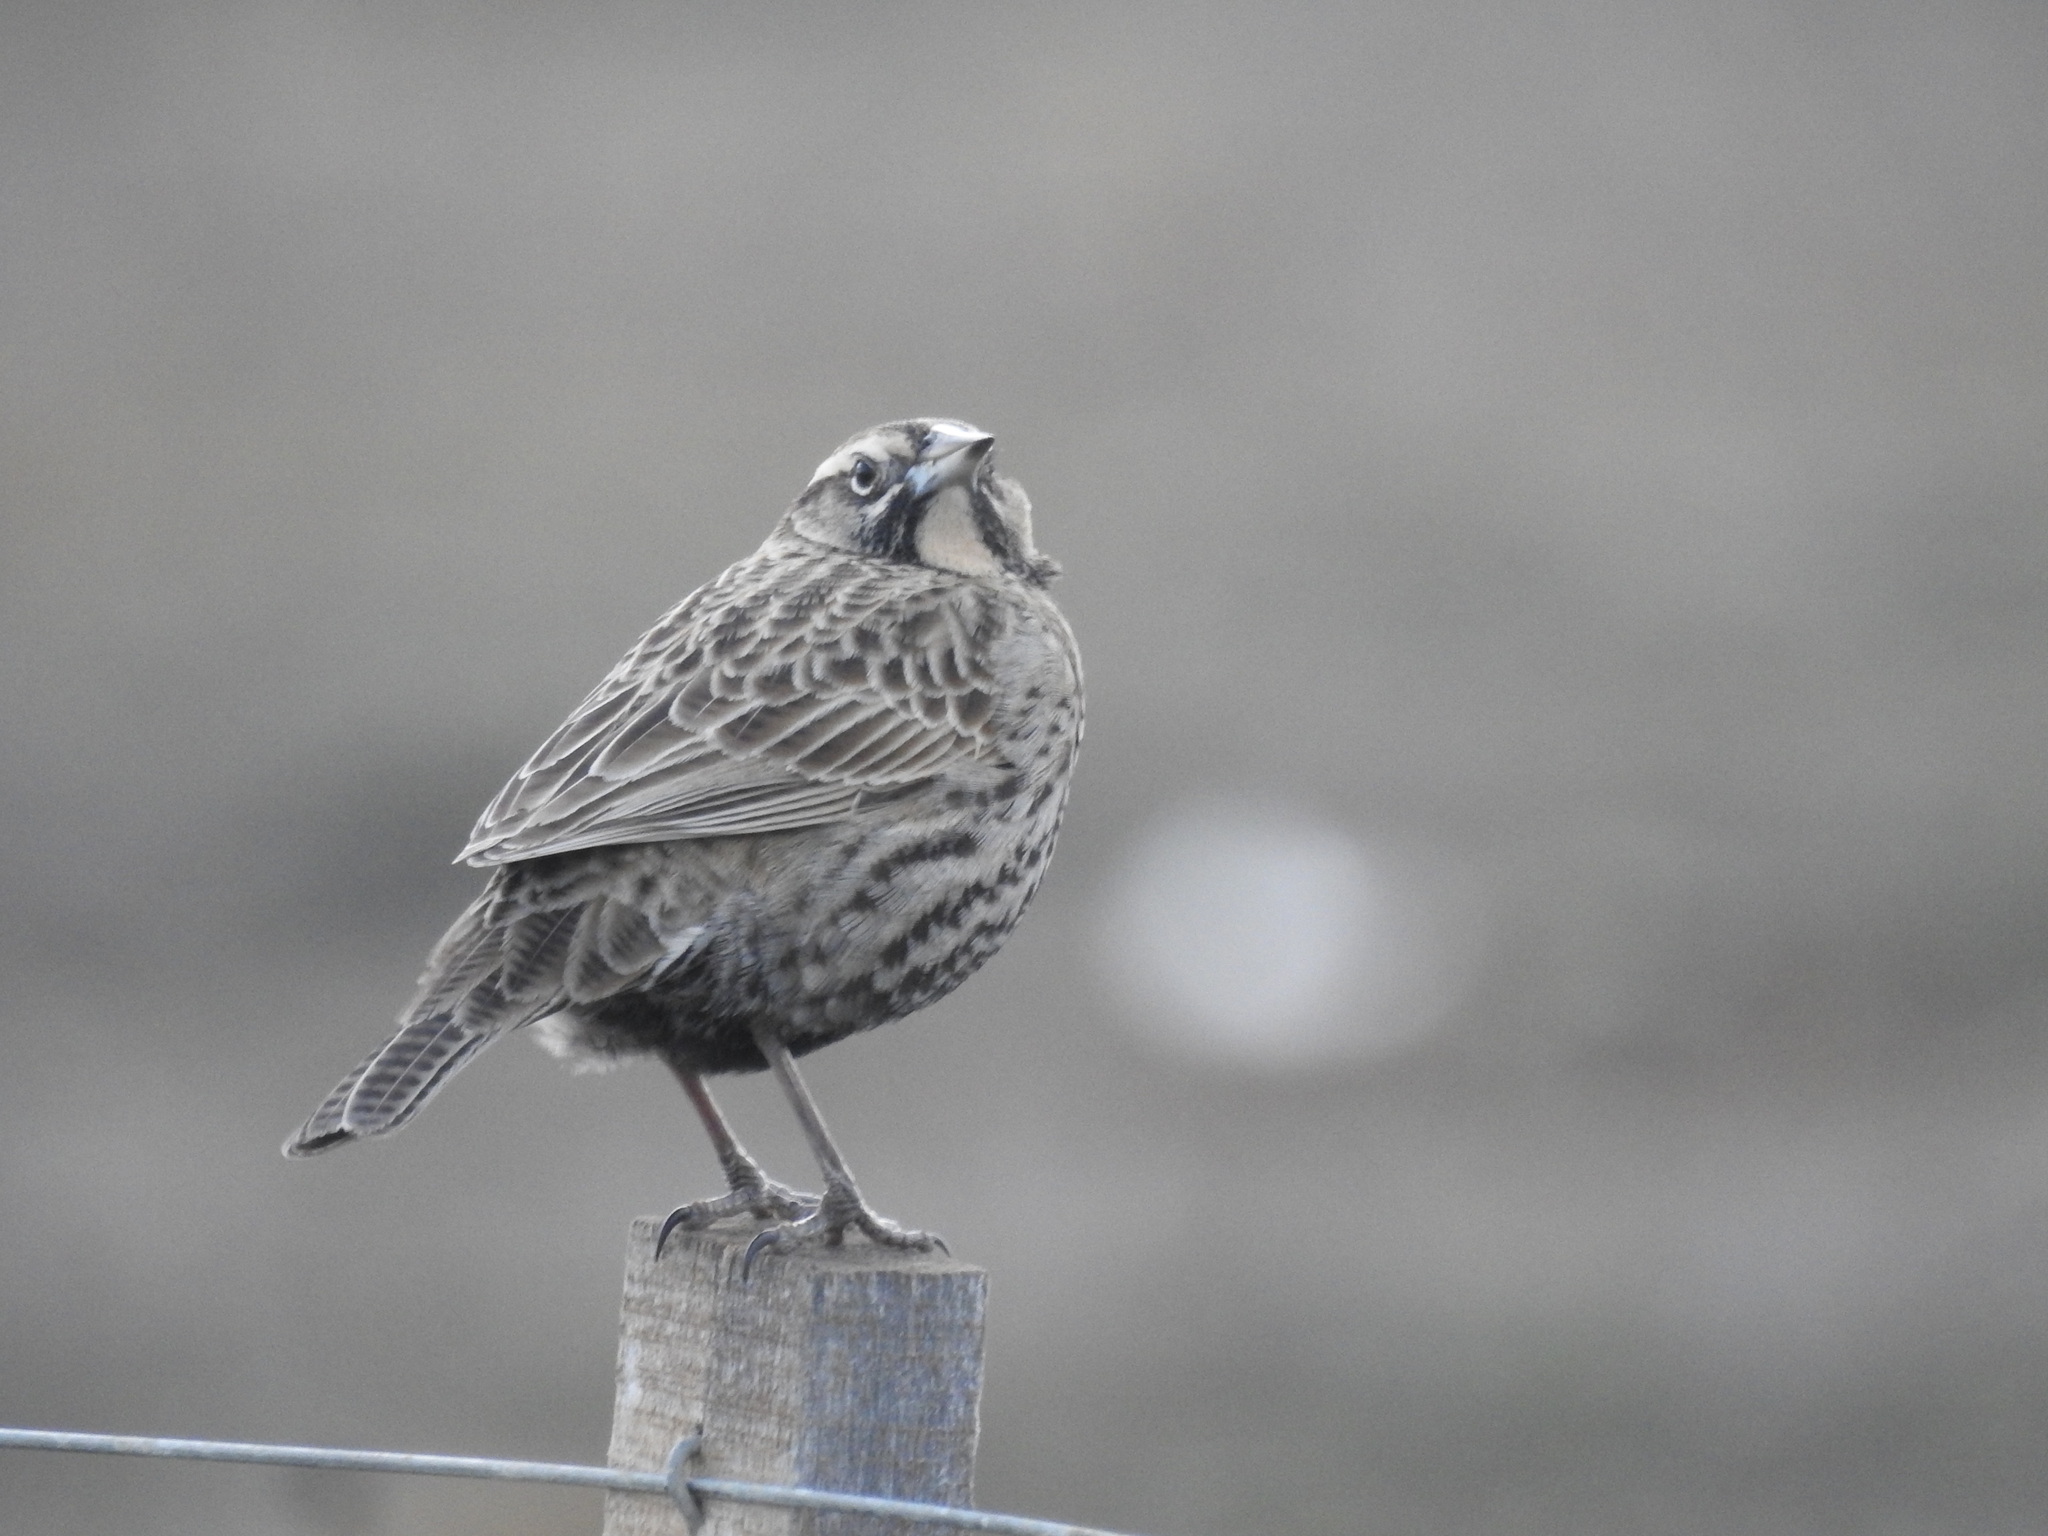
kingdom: Animalia
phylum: Chordata
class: Aves
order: Passeriformes
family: Icteridae
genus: Sturnella
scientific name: Sturnella loyca
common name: Long-tailed meadowlark
